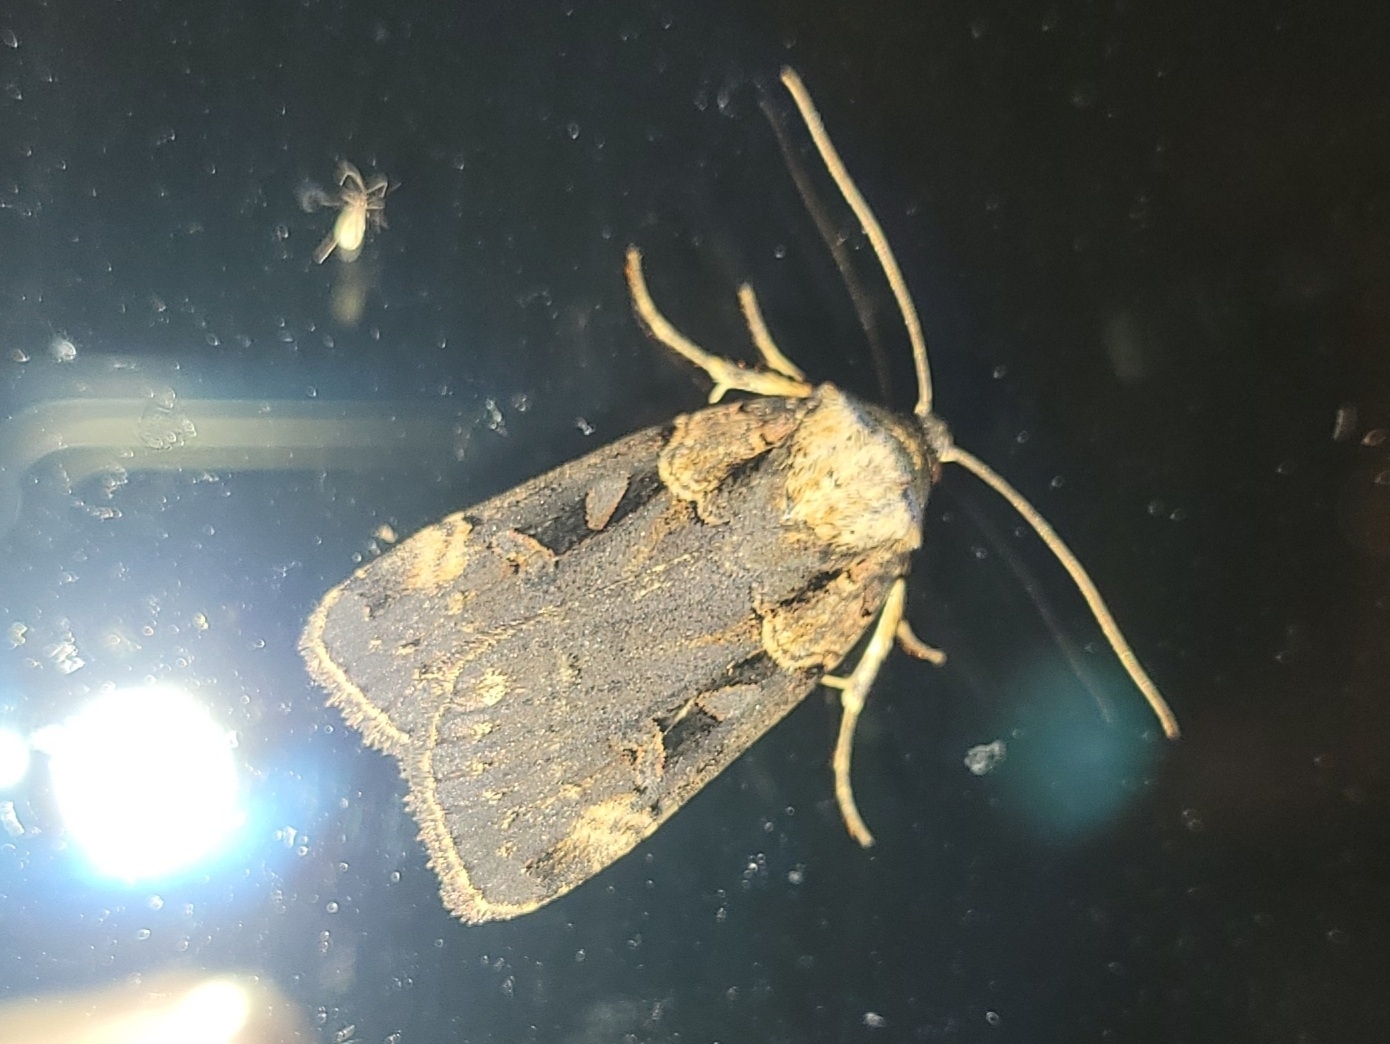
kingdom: Animalia
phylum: Arthropoda
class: Insecta
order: Lepidoptera
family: Noctuidae
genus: Pseudohermonassa
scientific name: Pseudohermonassa bicarnea
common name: Pink spotted dart
